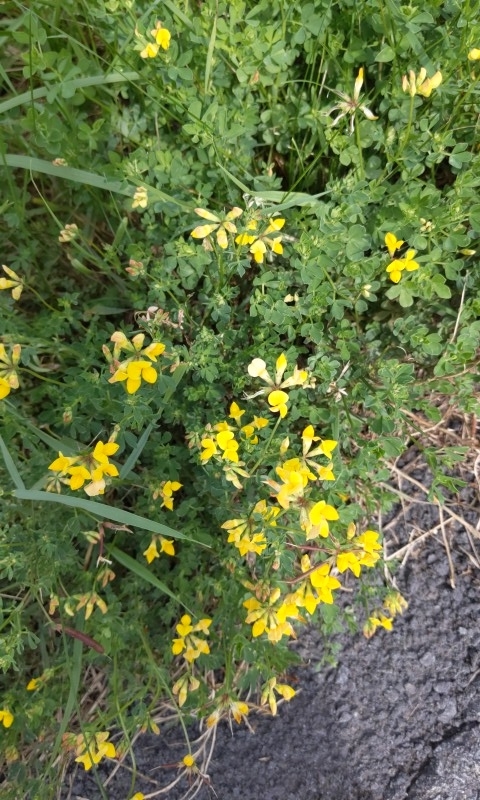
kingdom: Plantae
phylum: Tracheophyta
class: Magnoliopsida
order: Fabales
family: Fabaceae
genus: Lotus
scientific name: Lotus corniculatus
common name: Common bird's-foot-trefoil
